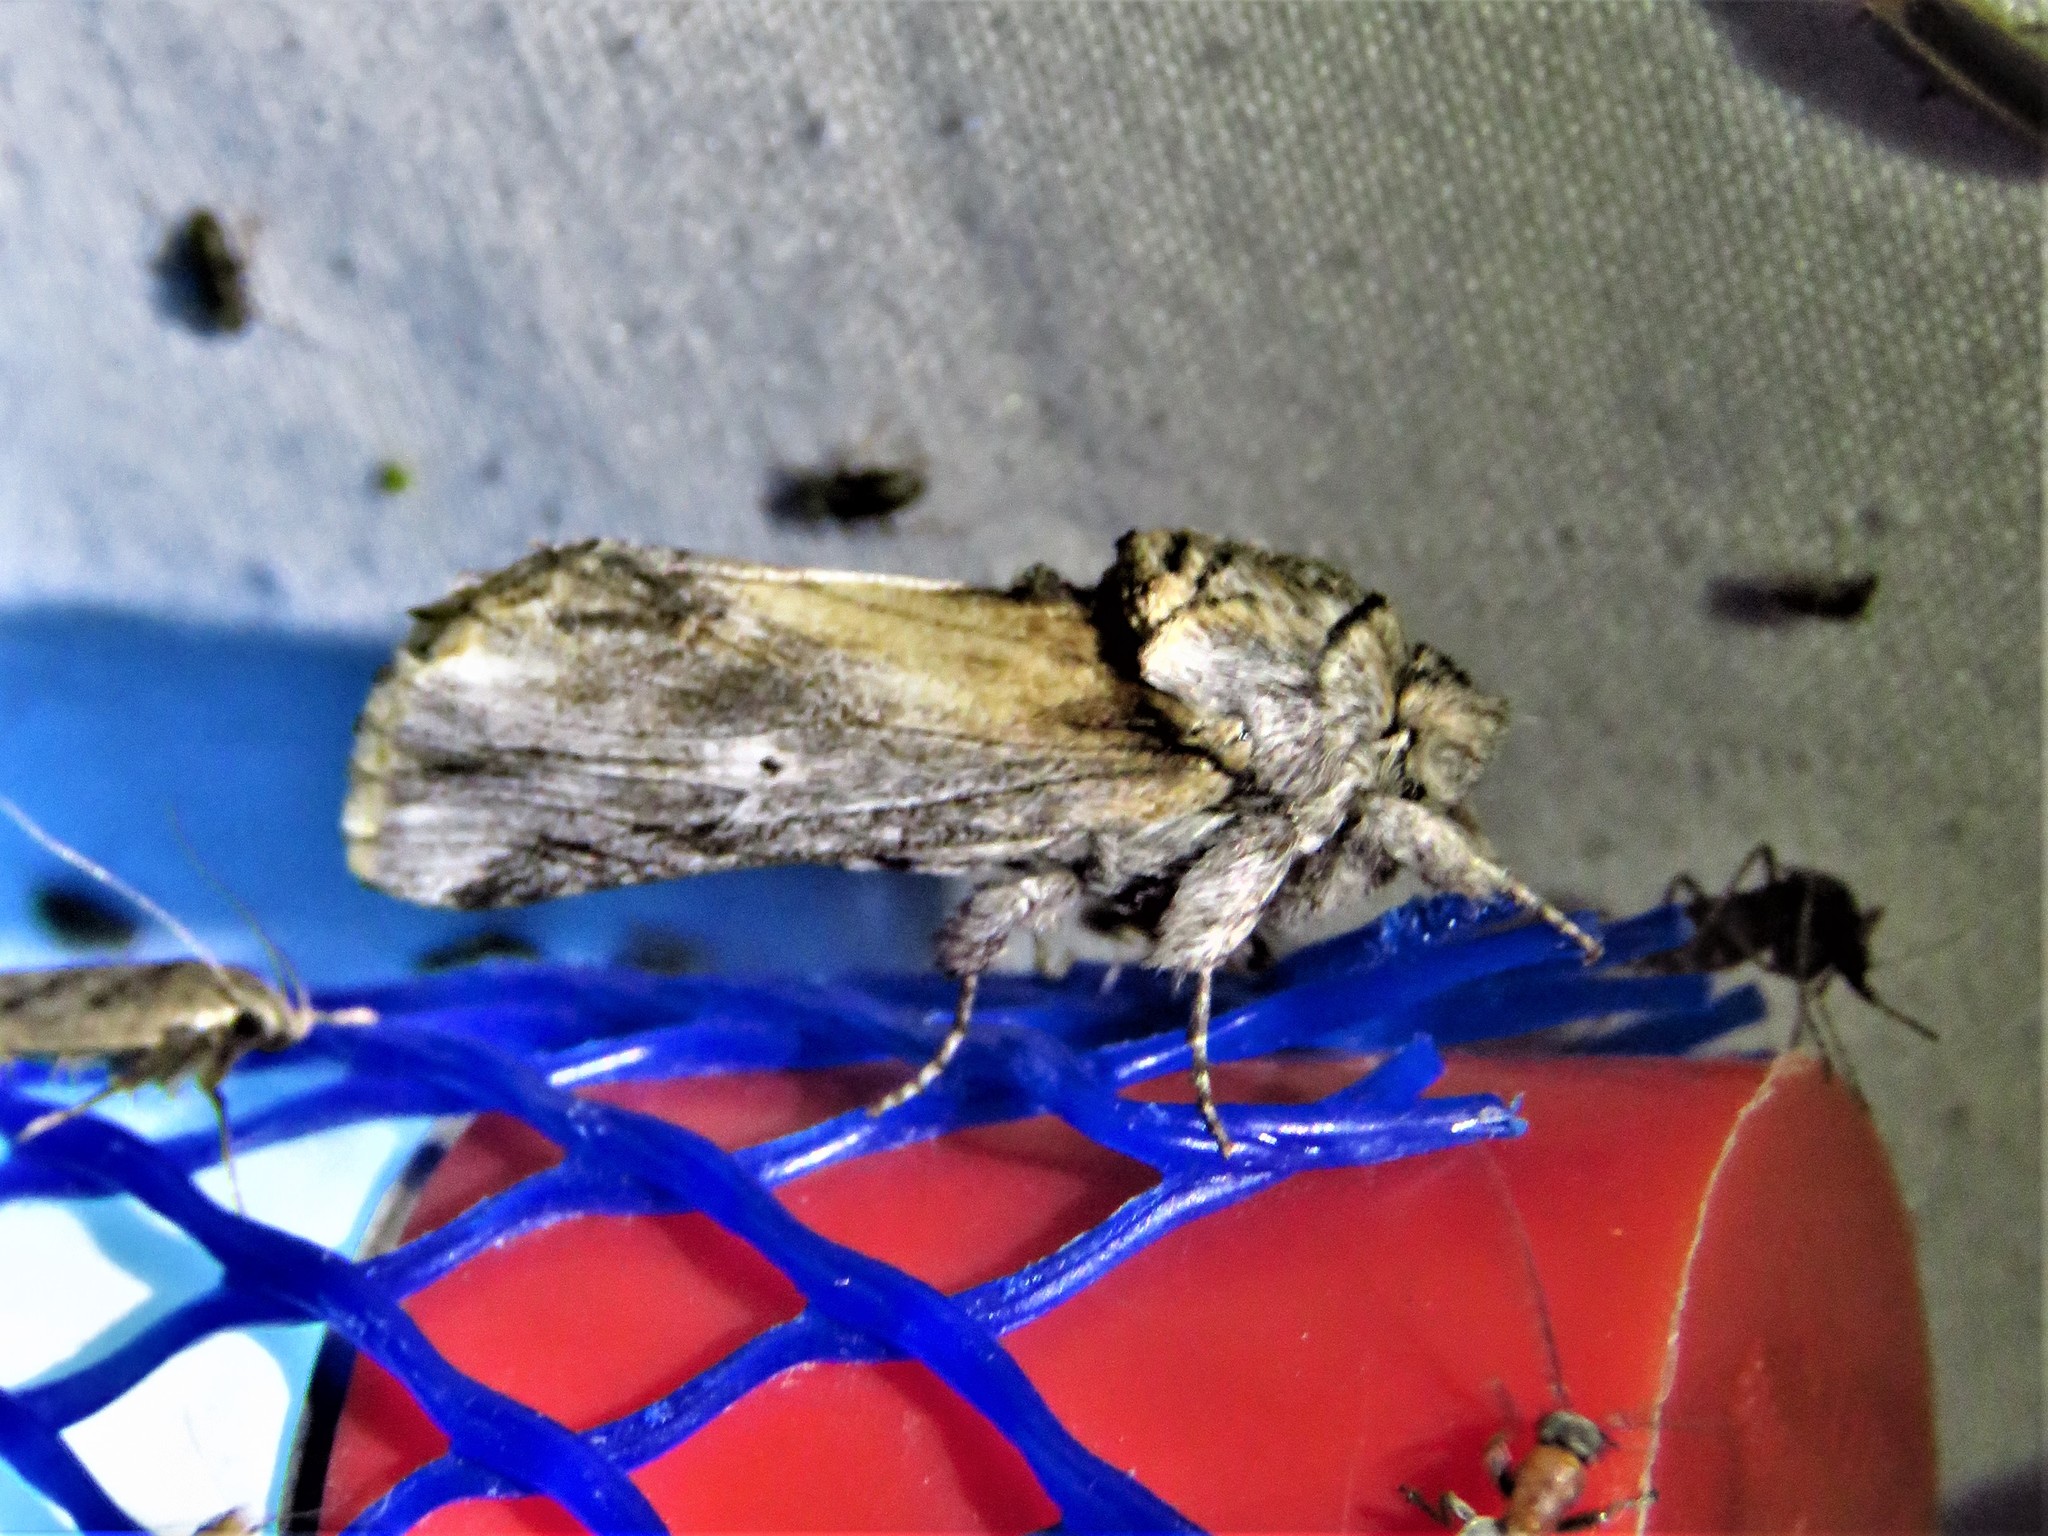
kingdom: Animalia
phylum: Arthropoda
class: Insecta
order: Lepidoptera
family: Notodontidae
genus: Oligocentria
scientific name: Oligocentria Ianassa lignicolor
